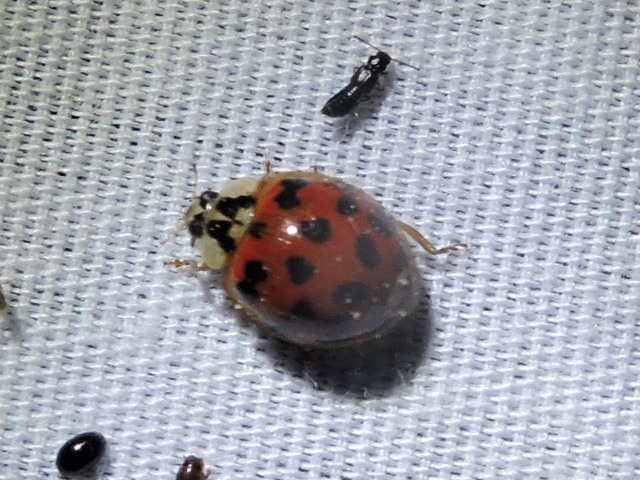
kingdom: Animalia
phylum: Arthropoda
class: Insecta
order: Coleoptera
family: Coccinellidae
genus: Harmonia
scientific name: Harmonia axyridis
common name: Harlequin ladybird
